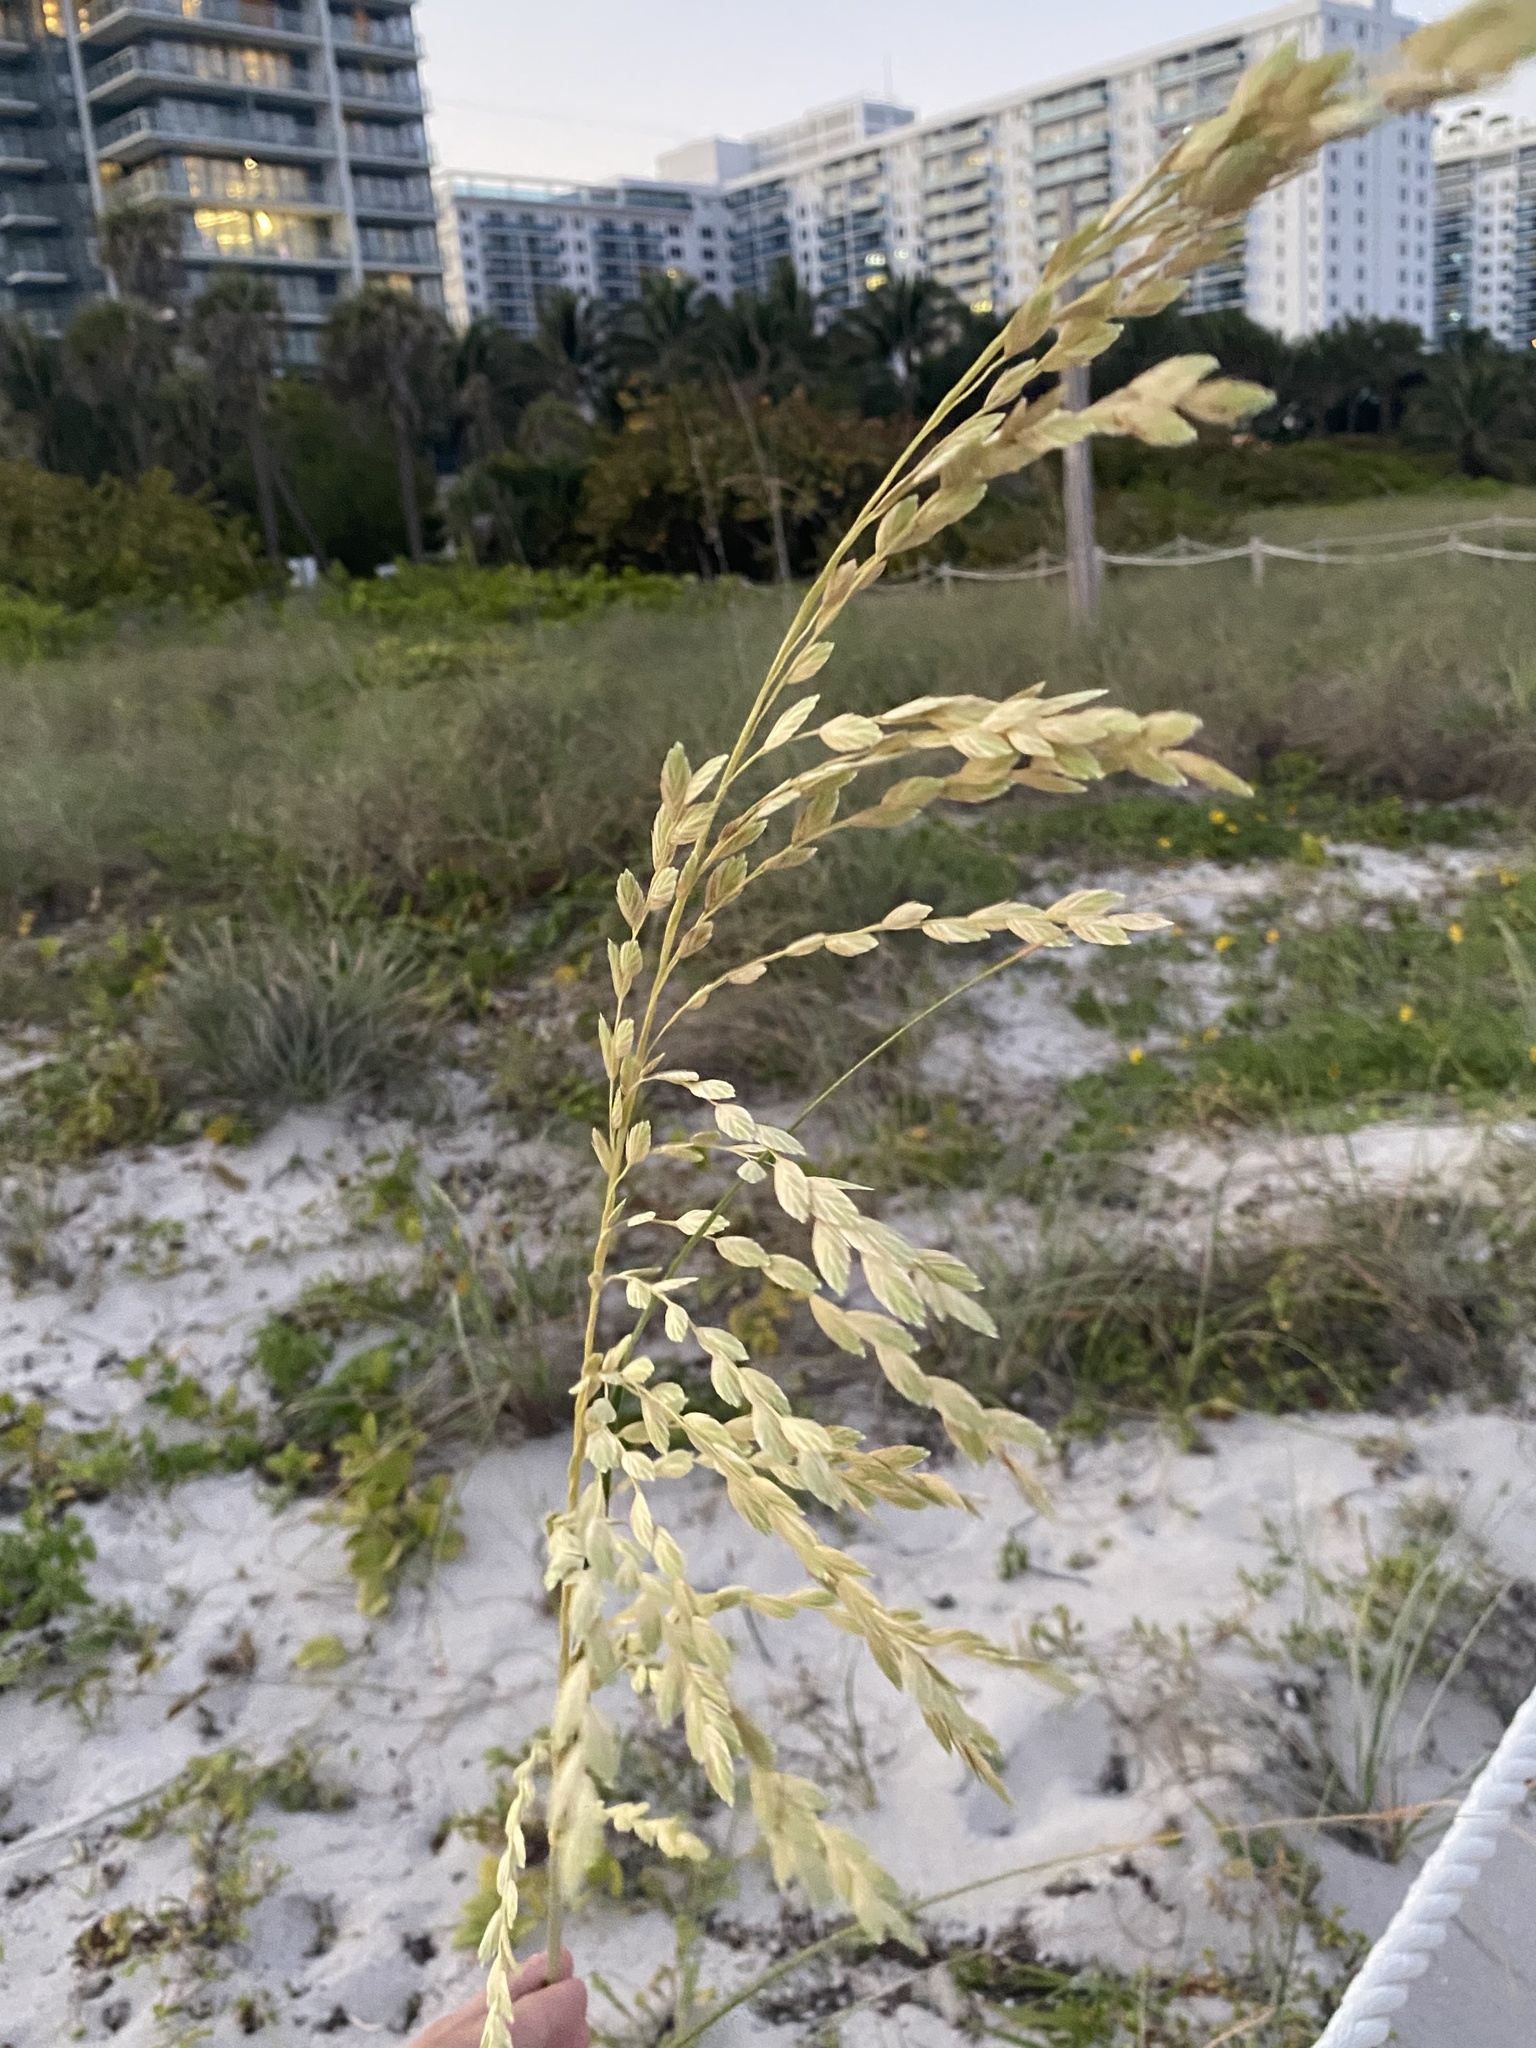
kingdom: Plantae
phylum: Tracheophyta
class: Liliopsida
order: Poales
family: Poaceae
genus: Uniola
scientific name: Uniola paniculata
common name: Seaside-oats
